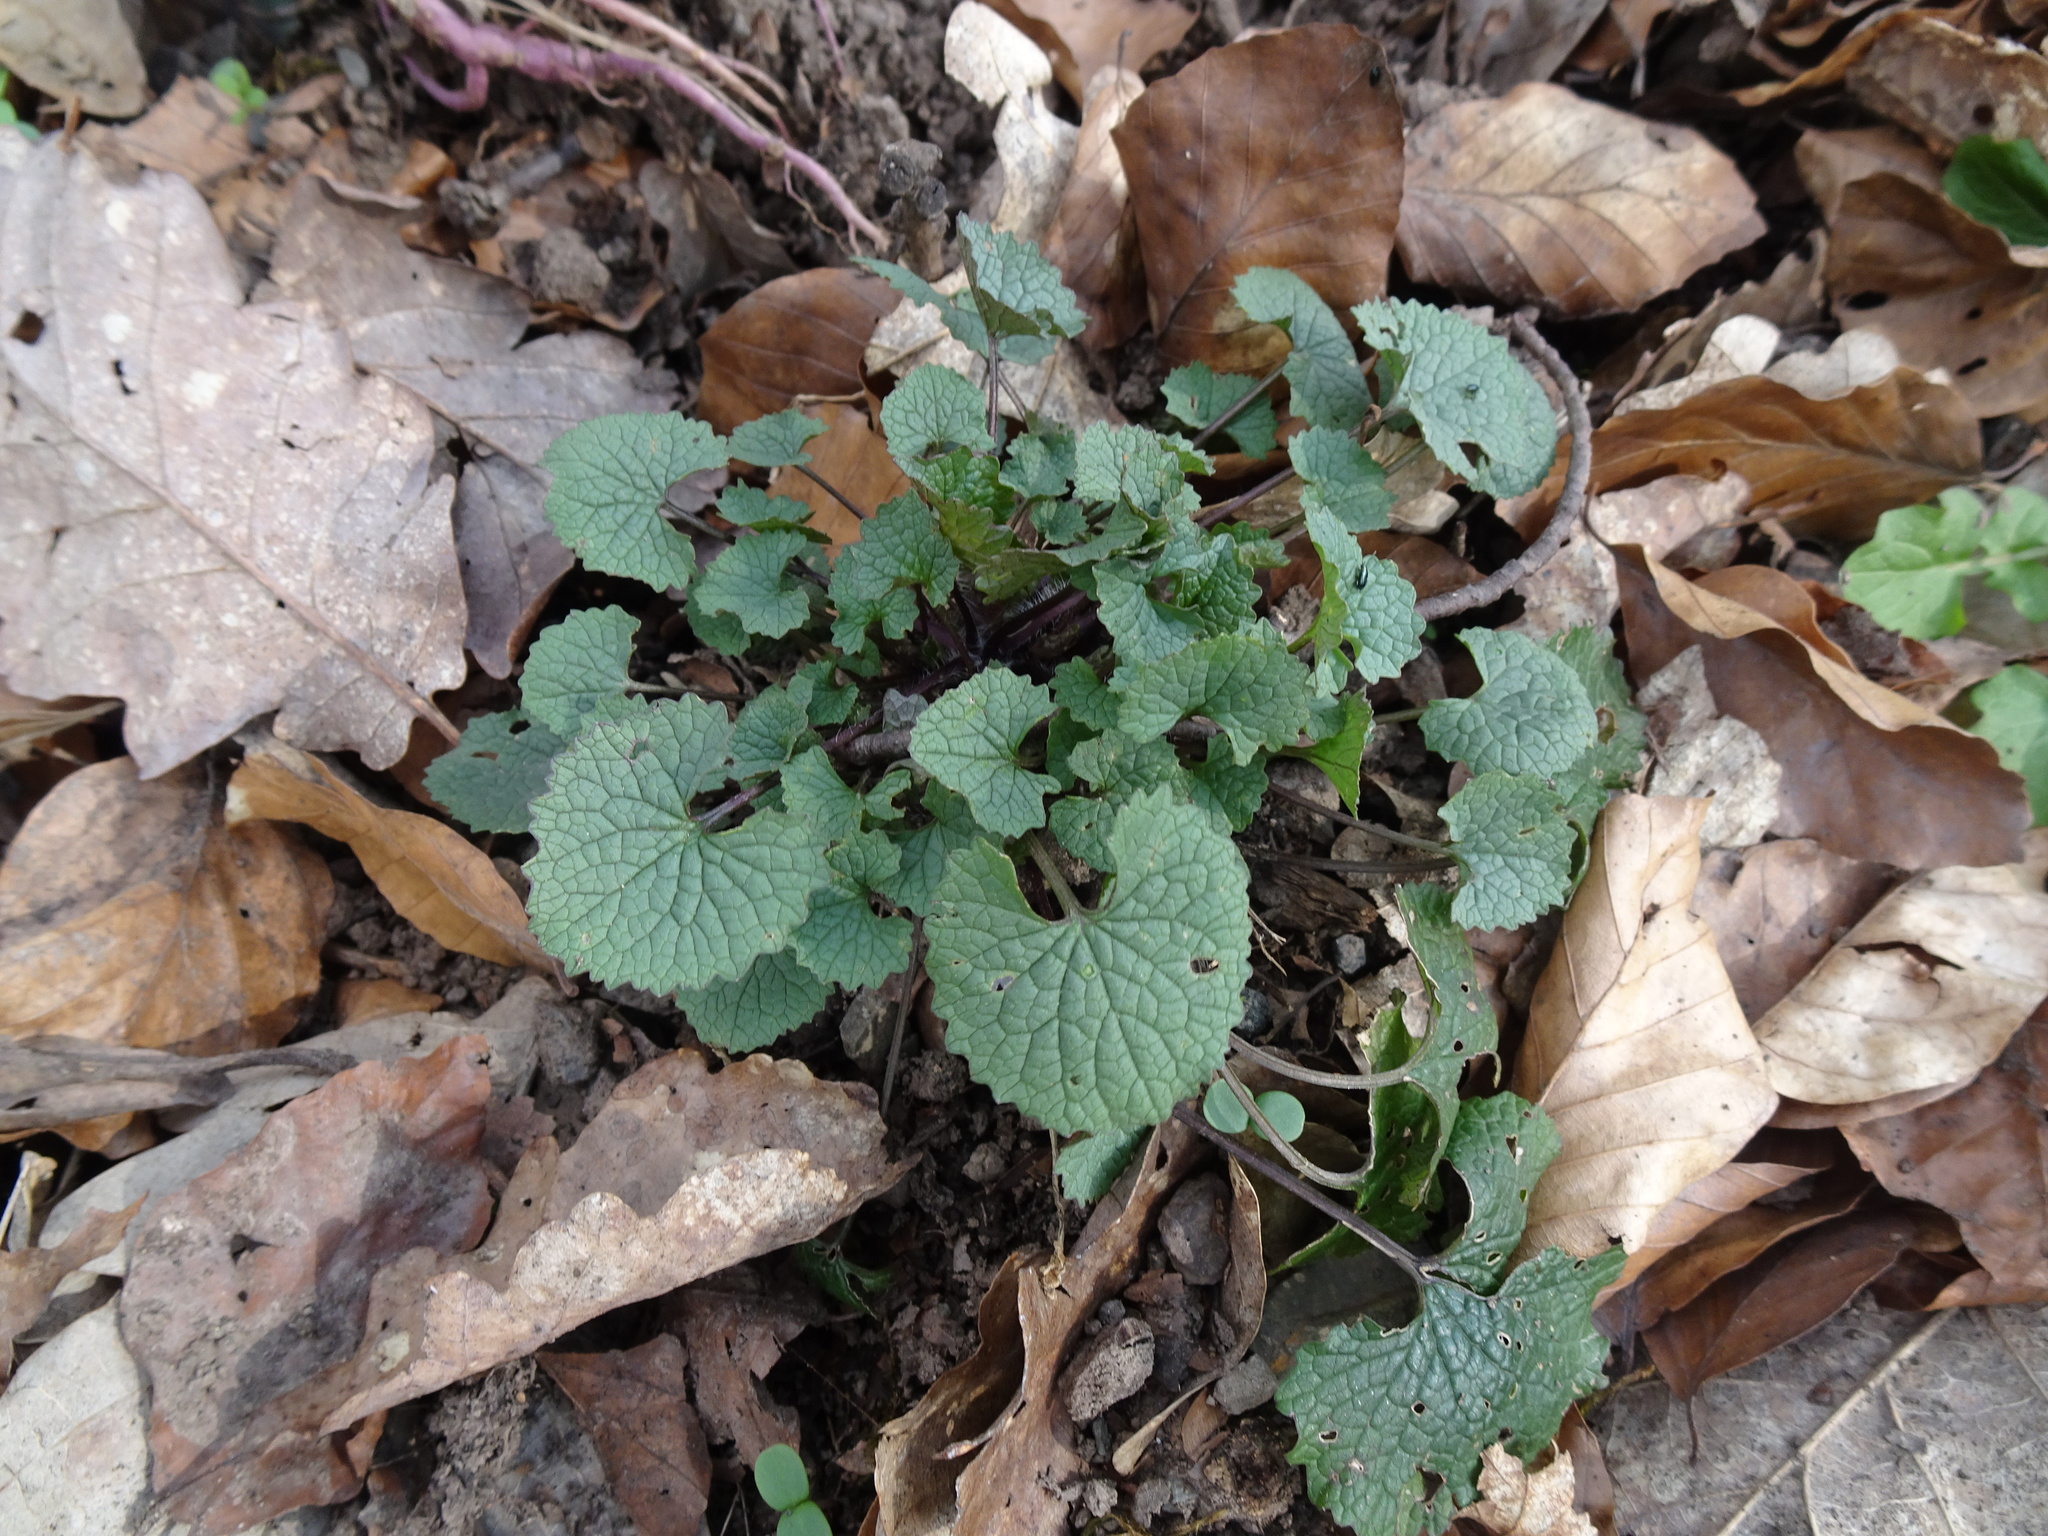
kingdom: Plantae
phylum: Tracheophyta
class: Magnoliopsida
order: Brassicales
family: Brassicaceae
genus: Alliaria
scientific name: Alliaria petiolata
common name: Garlic mustard
